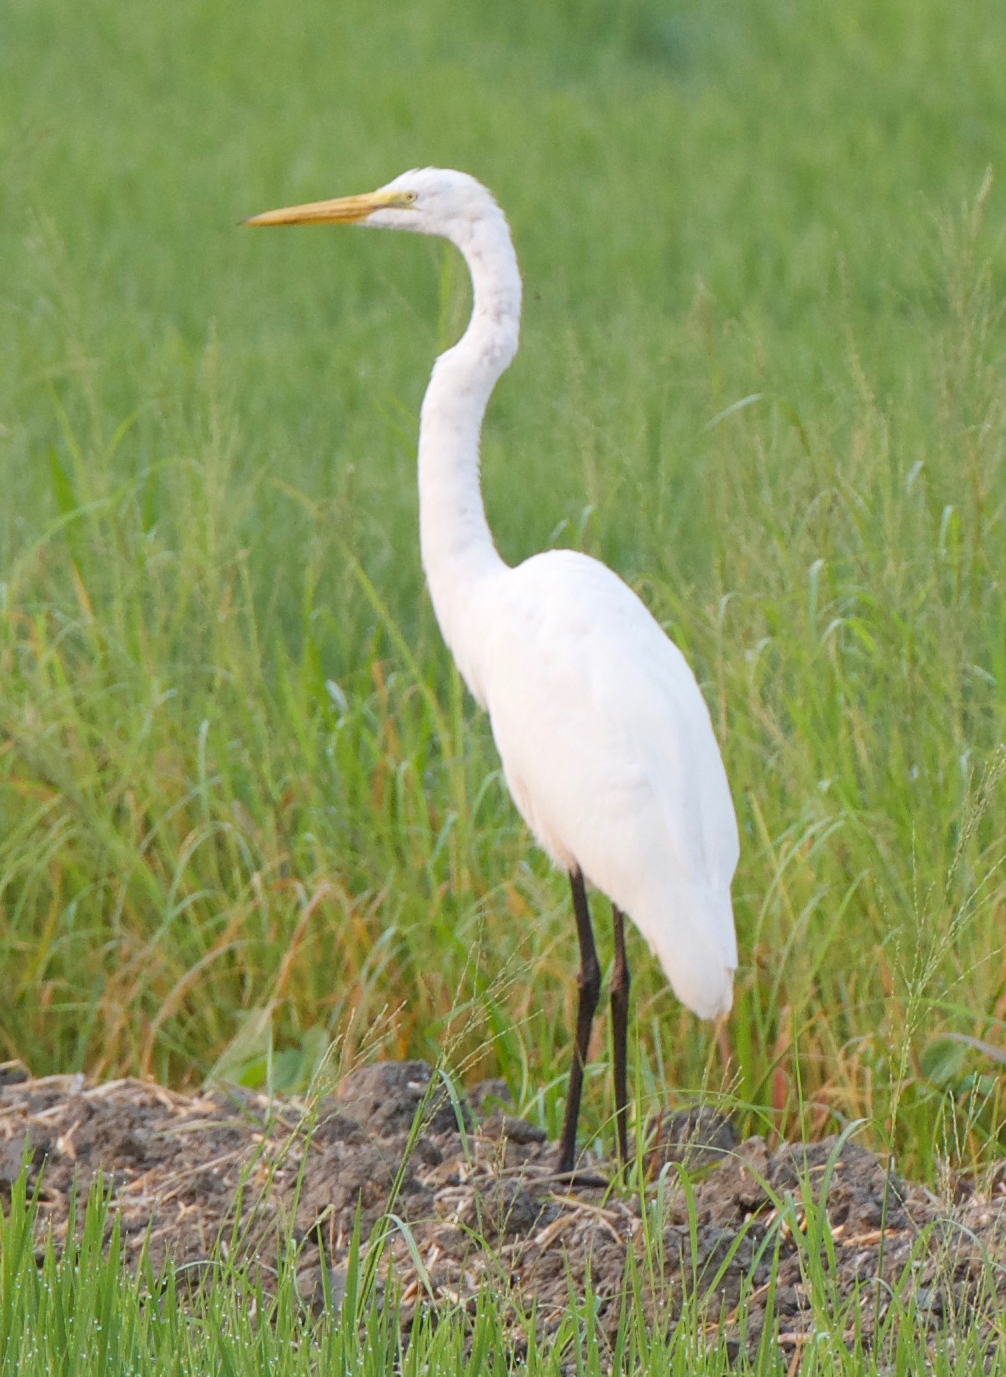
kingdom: Animalia
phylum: Chordata
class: Aves
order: Pelecaniformes
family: Ardeidae
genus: Ardea
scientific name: Ardea alba
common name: Great egret
